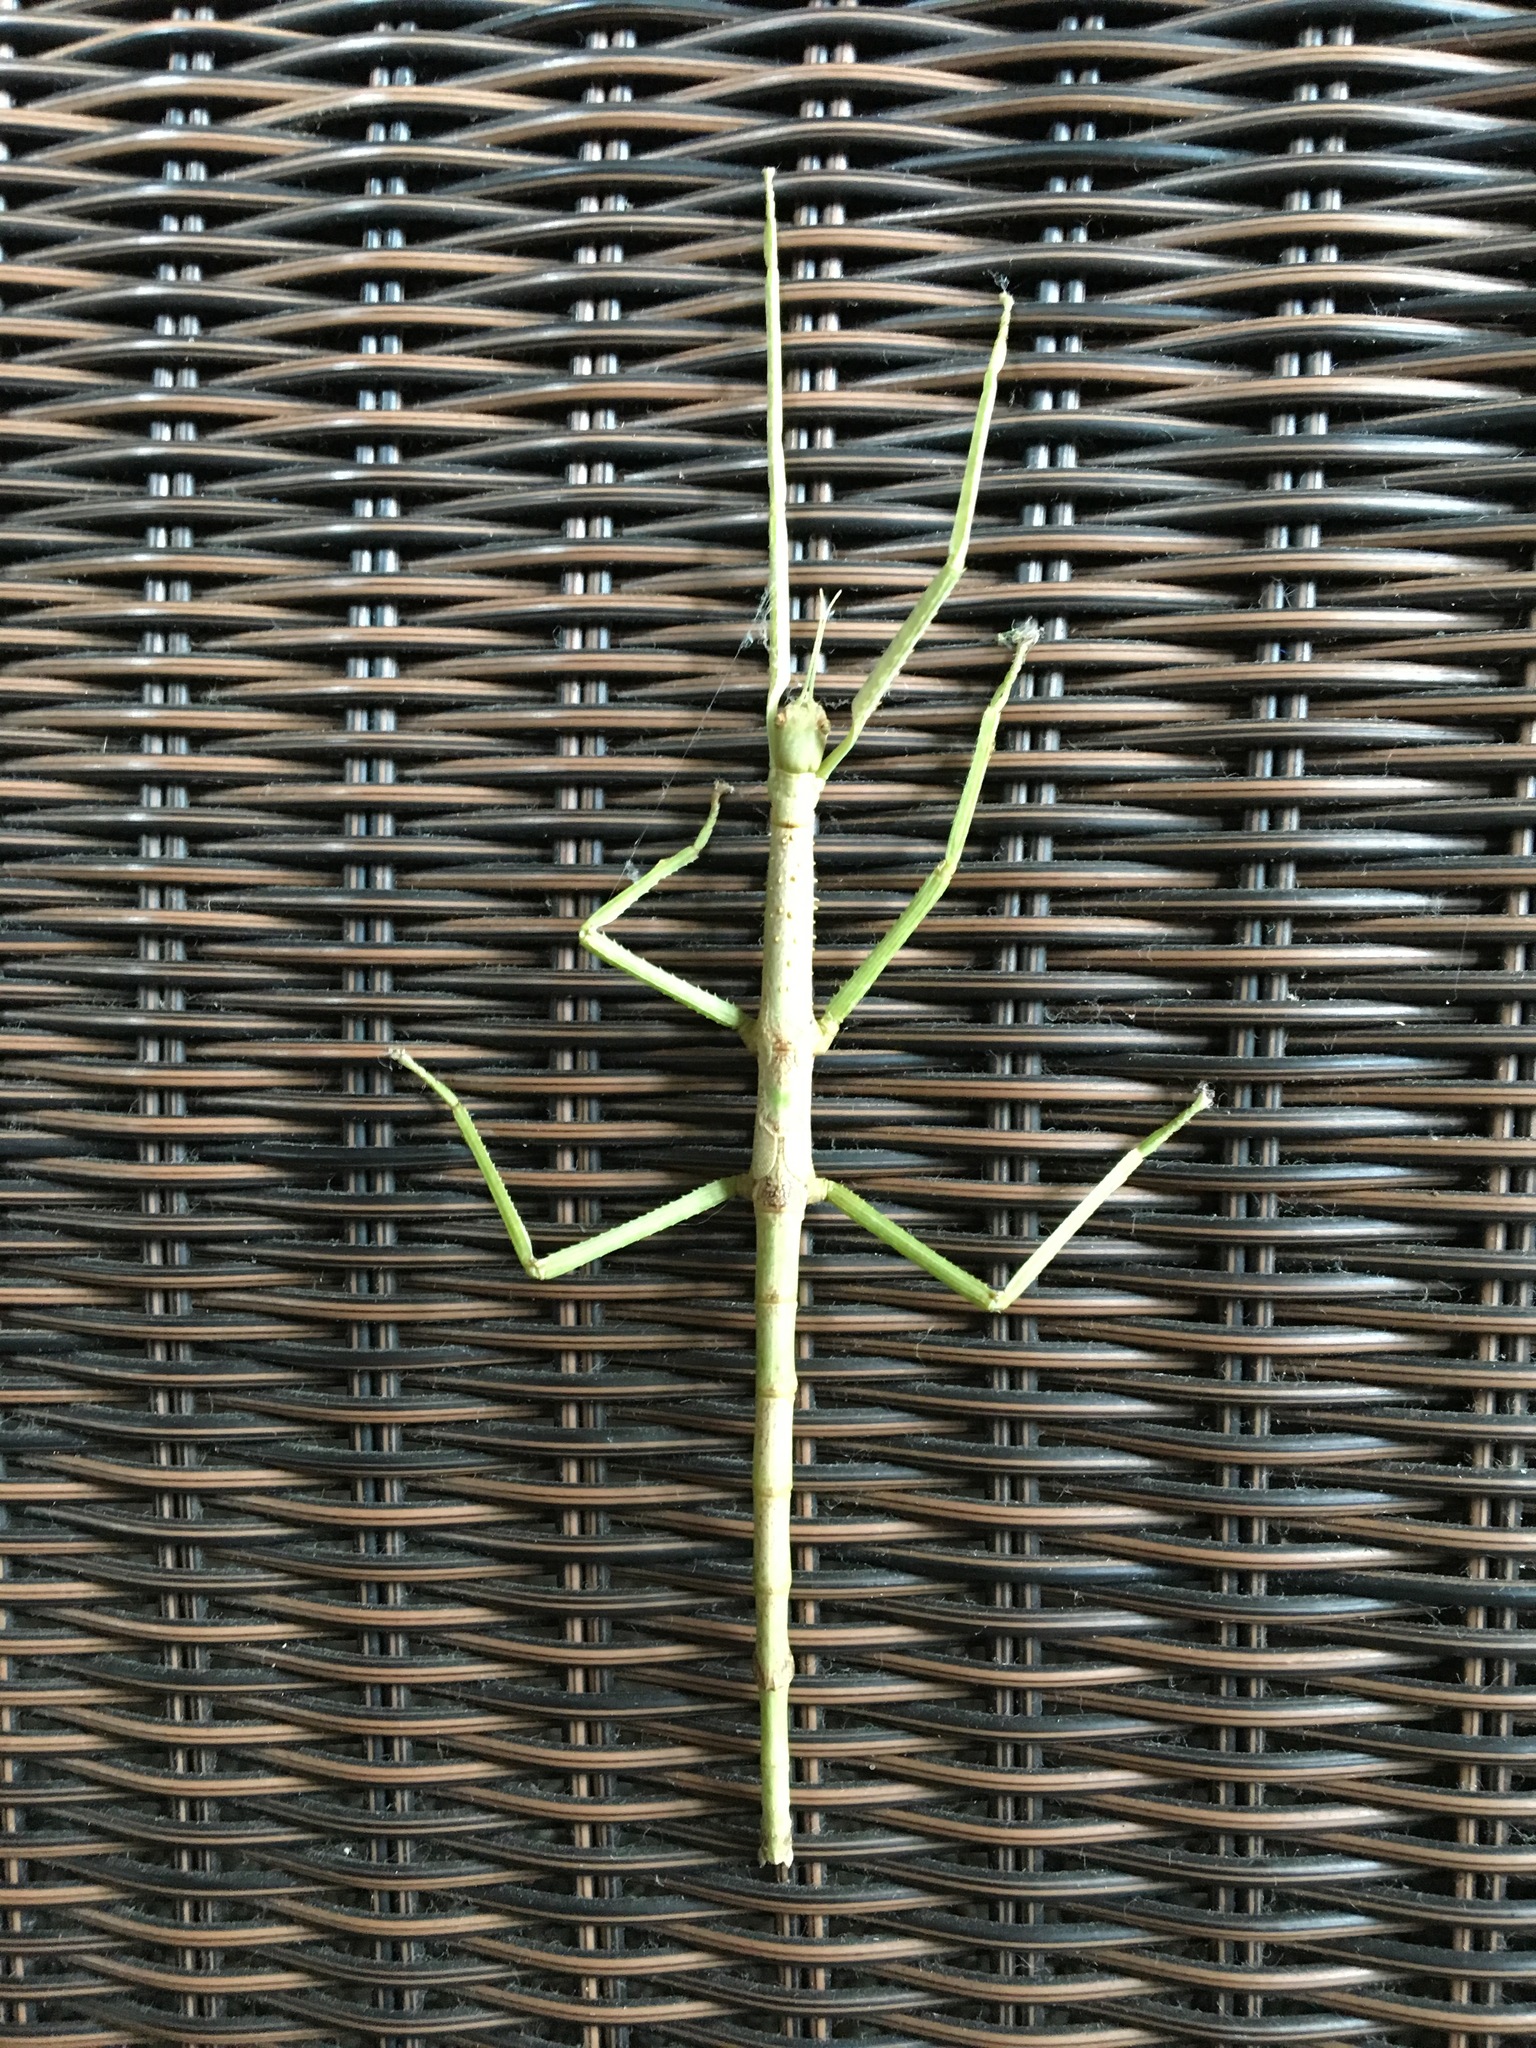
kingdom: Animalia
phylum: Arthropoda
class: Insecta
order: Phasmida
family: Phasmatidae
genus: Acrophylla
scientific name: Acrophylla wuelfingi
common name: Wülfing's stick insect
